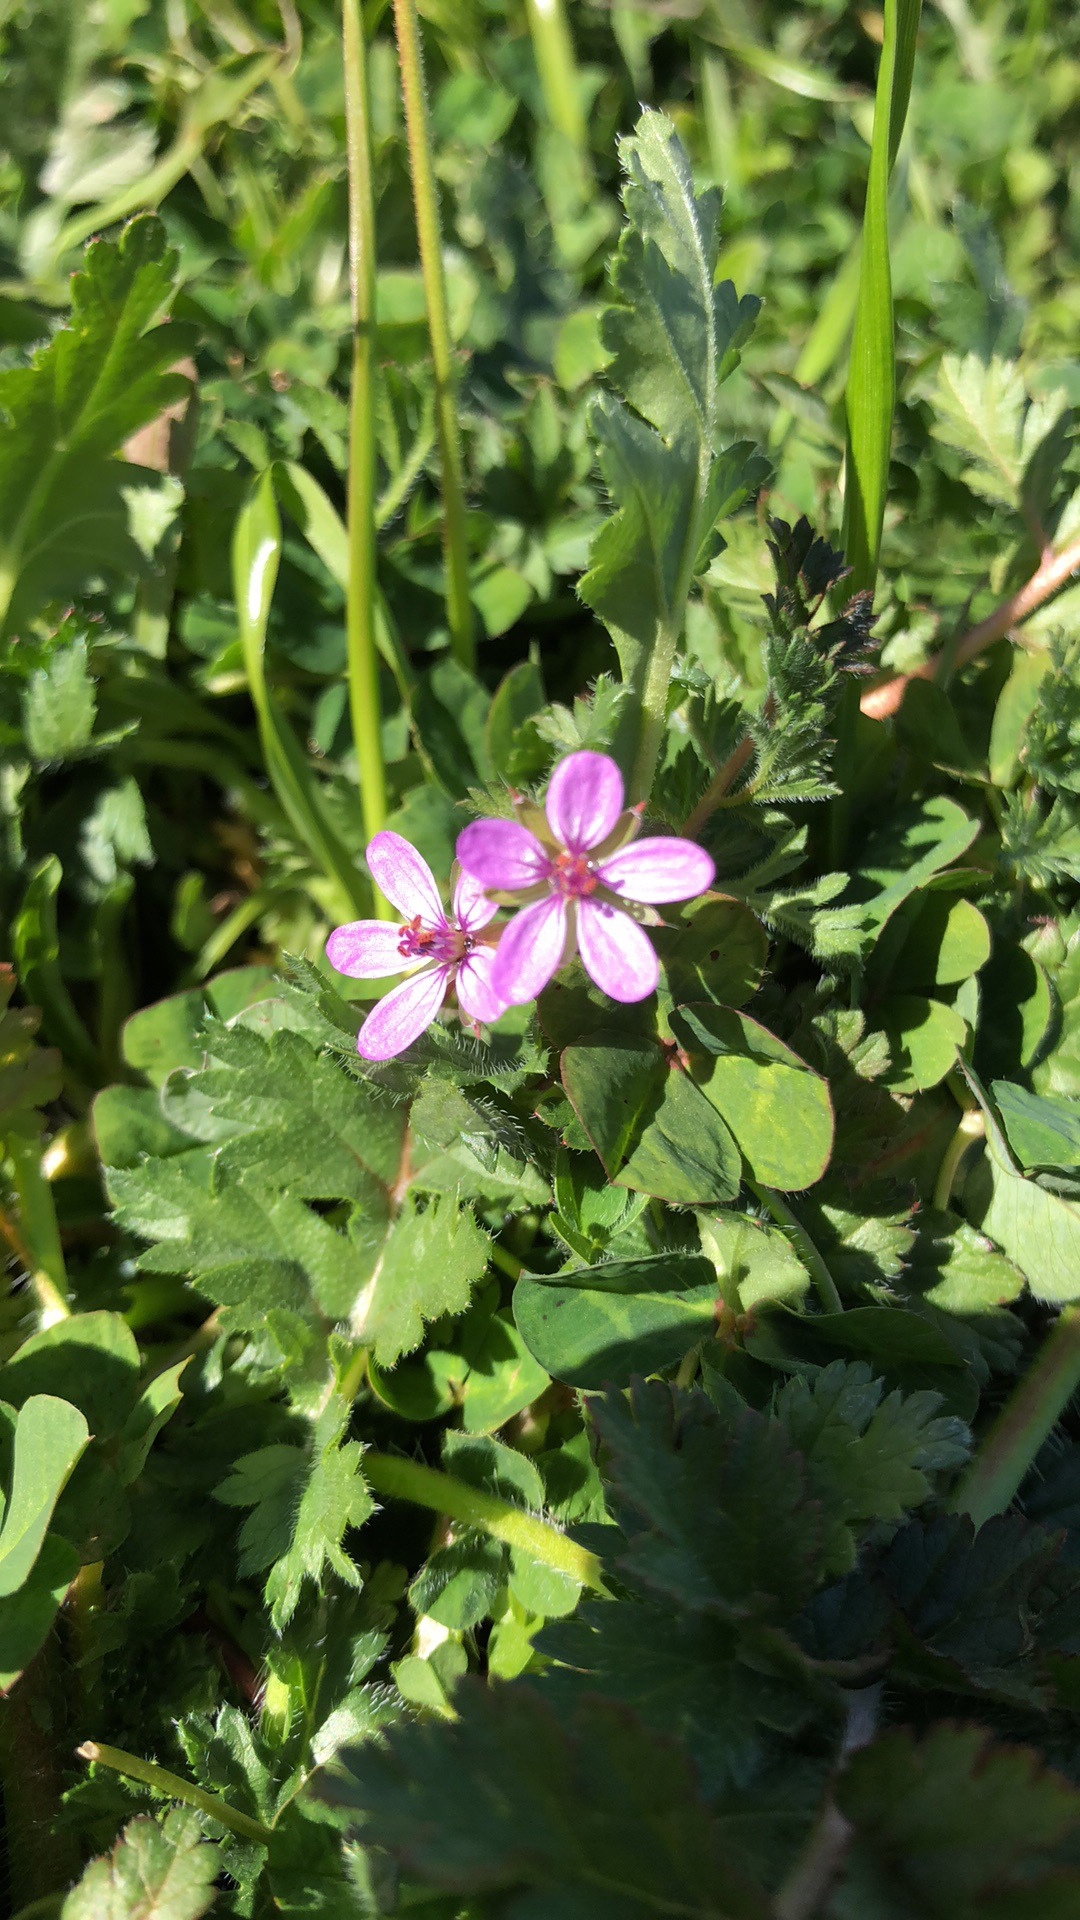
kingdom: Plantae
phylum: Tracheophyta
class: Magnoliopsida
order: Geraniales
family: Geraniaceae
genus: Erodium
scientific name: Erodium cicutarium
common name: Common stork's-bill
